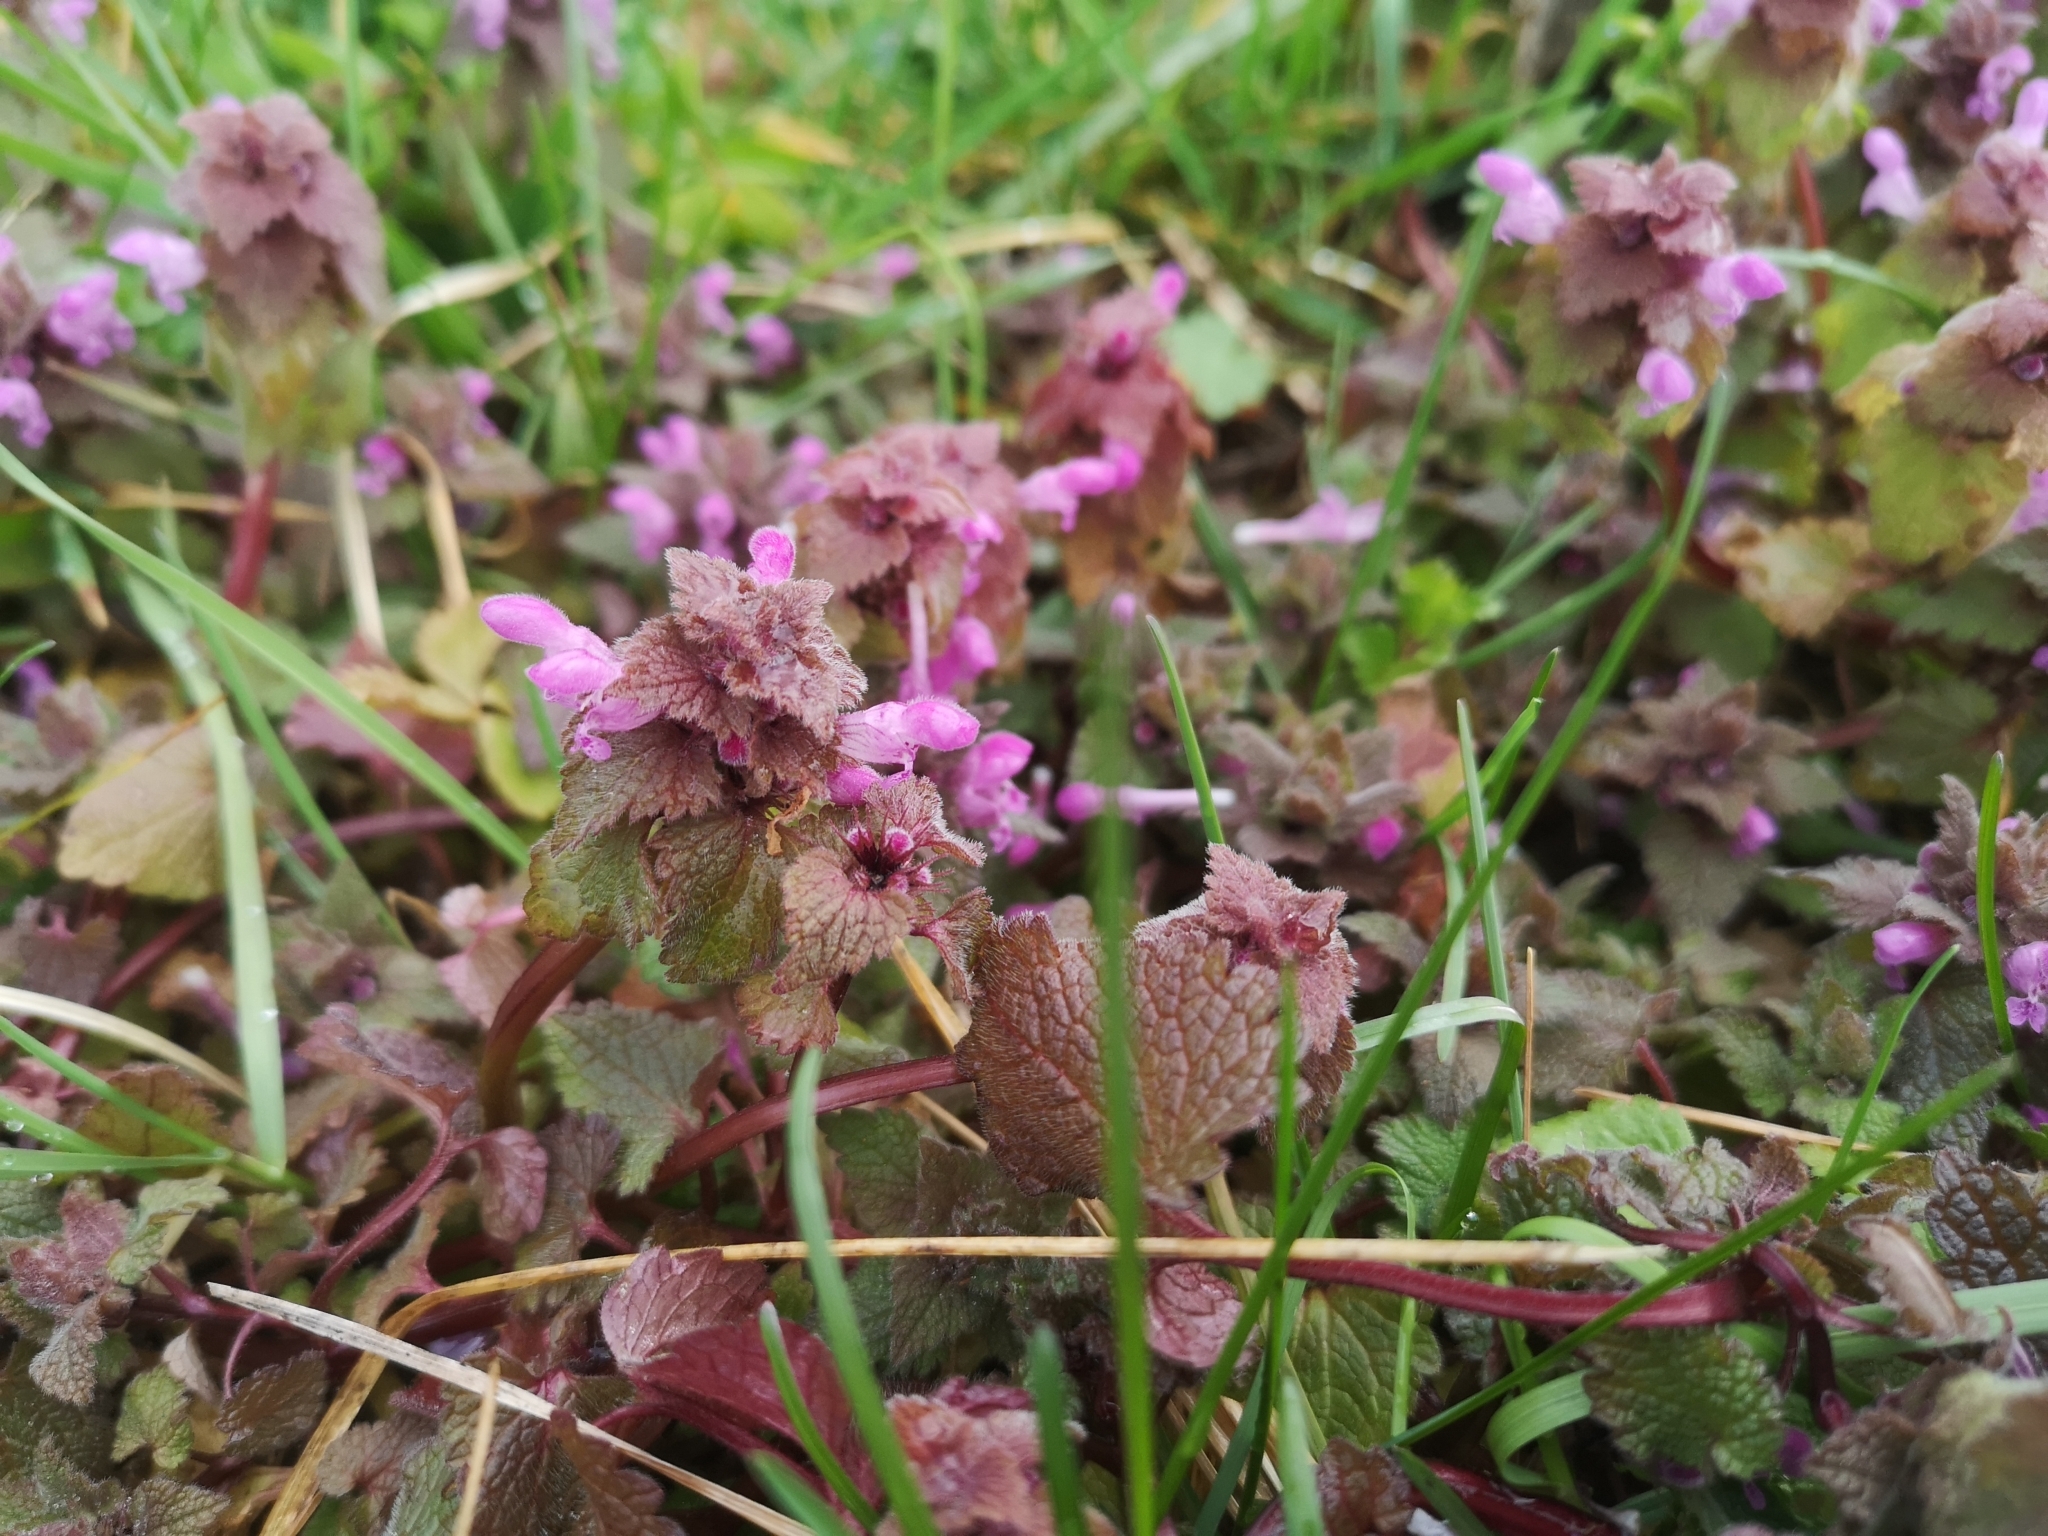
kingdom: Plantae
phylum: Tracheophyta
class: Magnoliopsida
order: Lamiales
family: Lamiaceae
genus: Lamium
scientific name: Lamium purpureum
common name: Red dead-nettle
